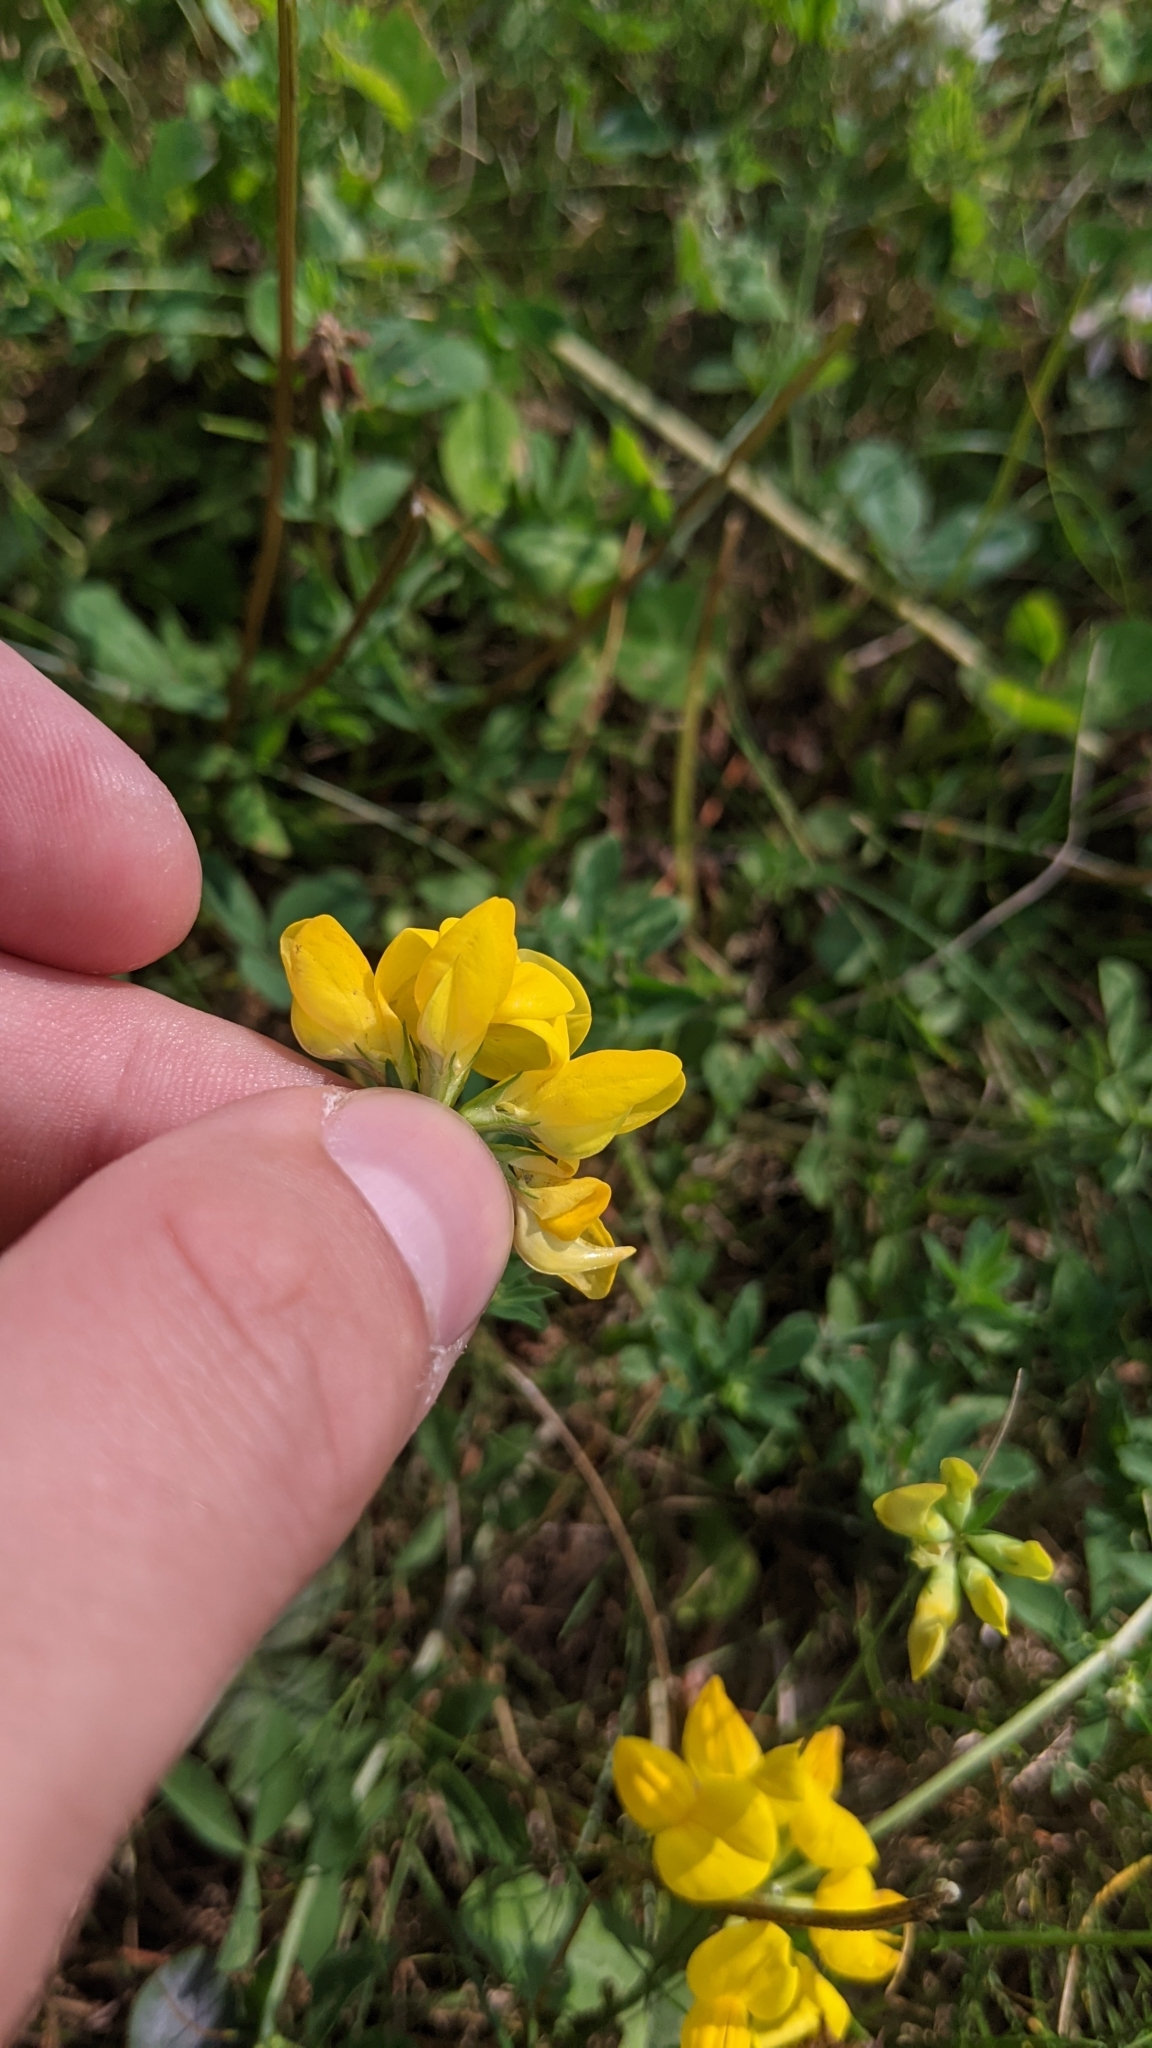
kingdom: Plantae
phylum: Tracheophyta
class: Magnoliopsida
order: Fabales
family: Fabaceae
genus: Lotus
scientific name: Lotus corniculatus
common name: Common bird's-foot-trefoil
